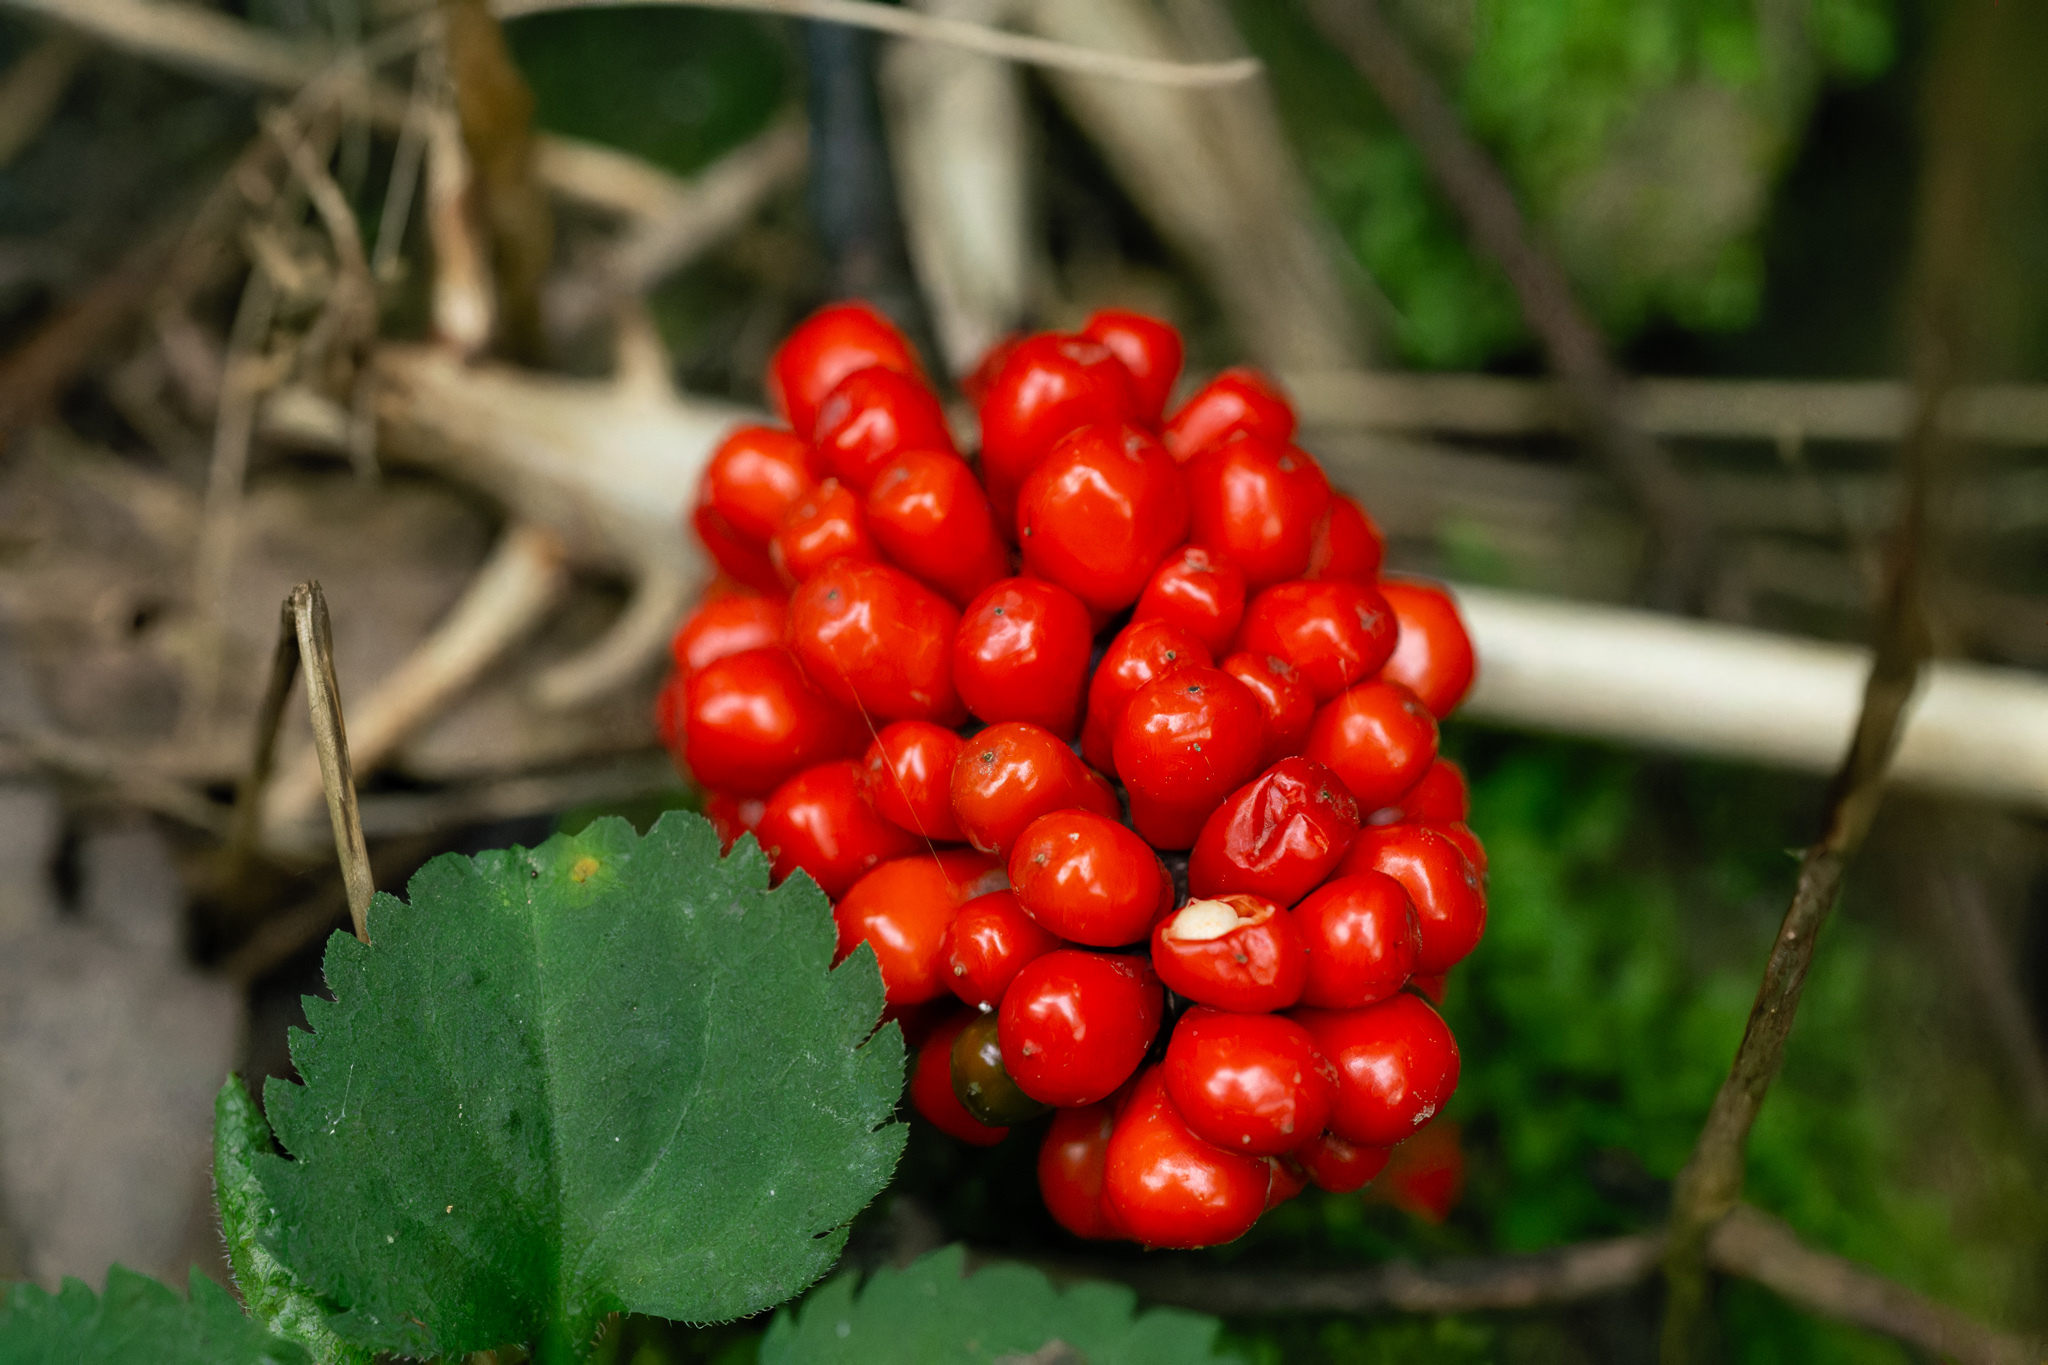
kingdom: Plantae
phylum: Tracheophyta
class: Liliopsida
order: Alismatales
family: Araceae
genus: Arisaema
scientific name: Arisaema triphyllum
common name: Jack-in-the-pulpit
